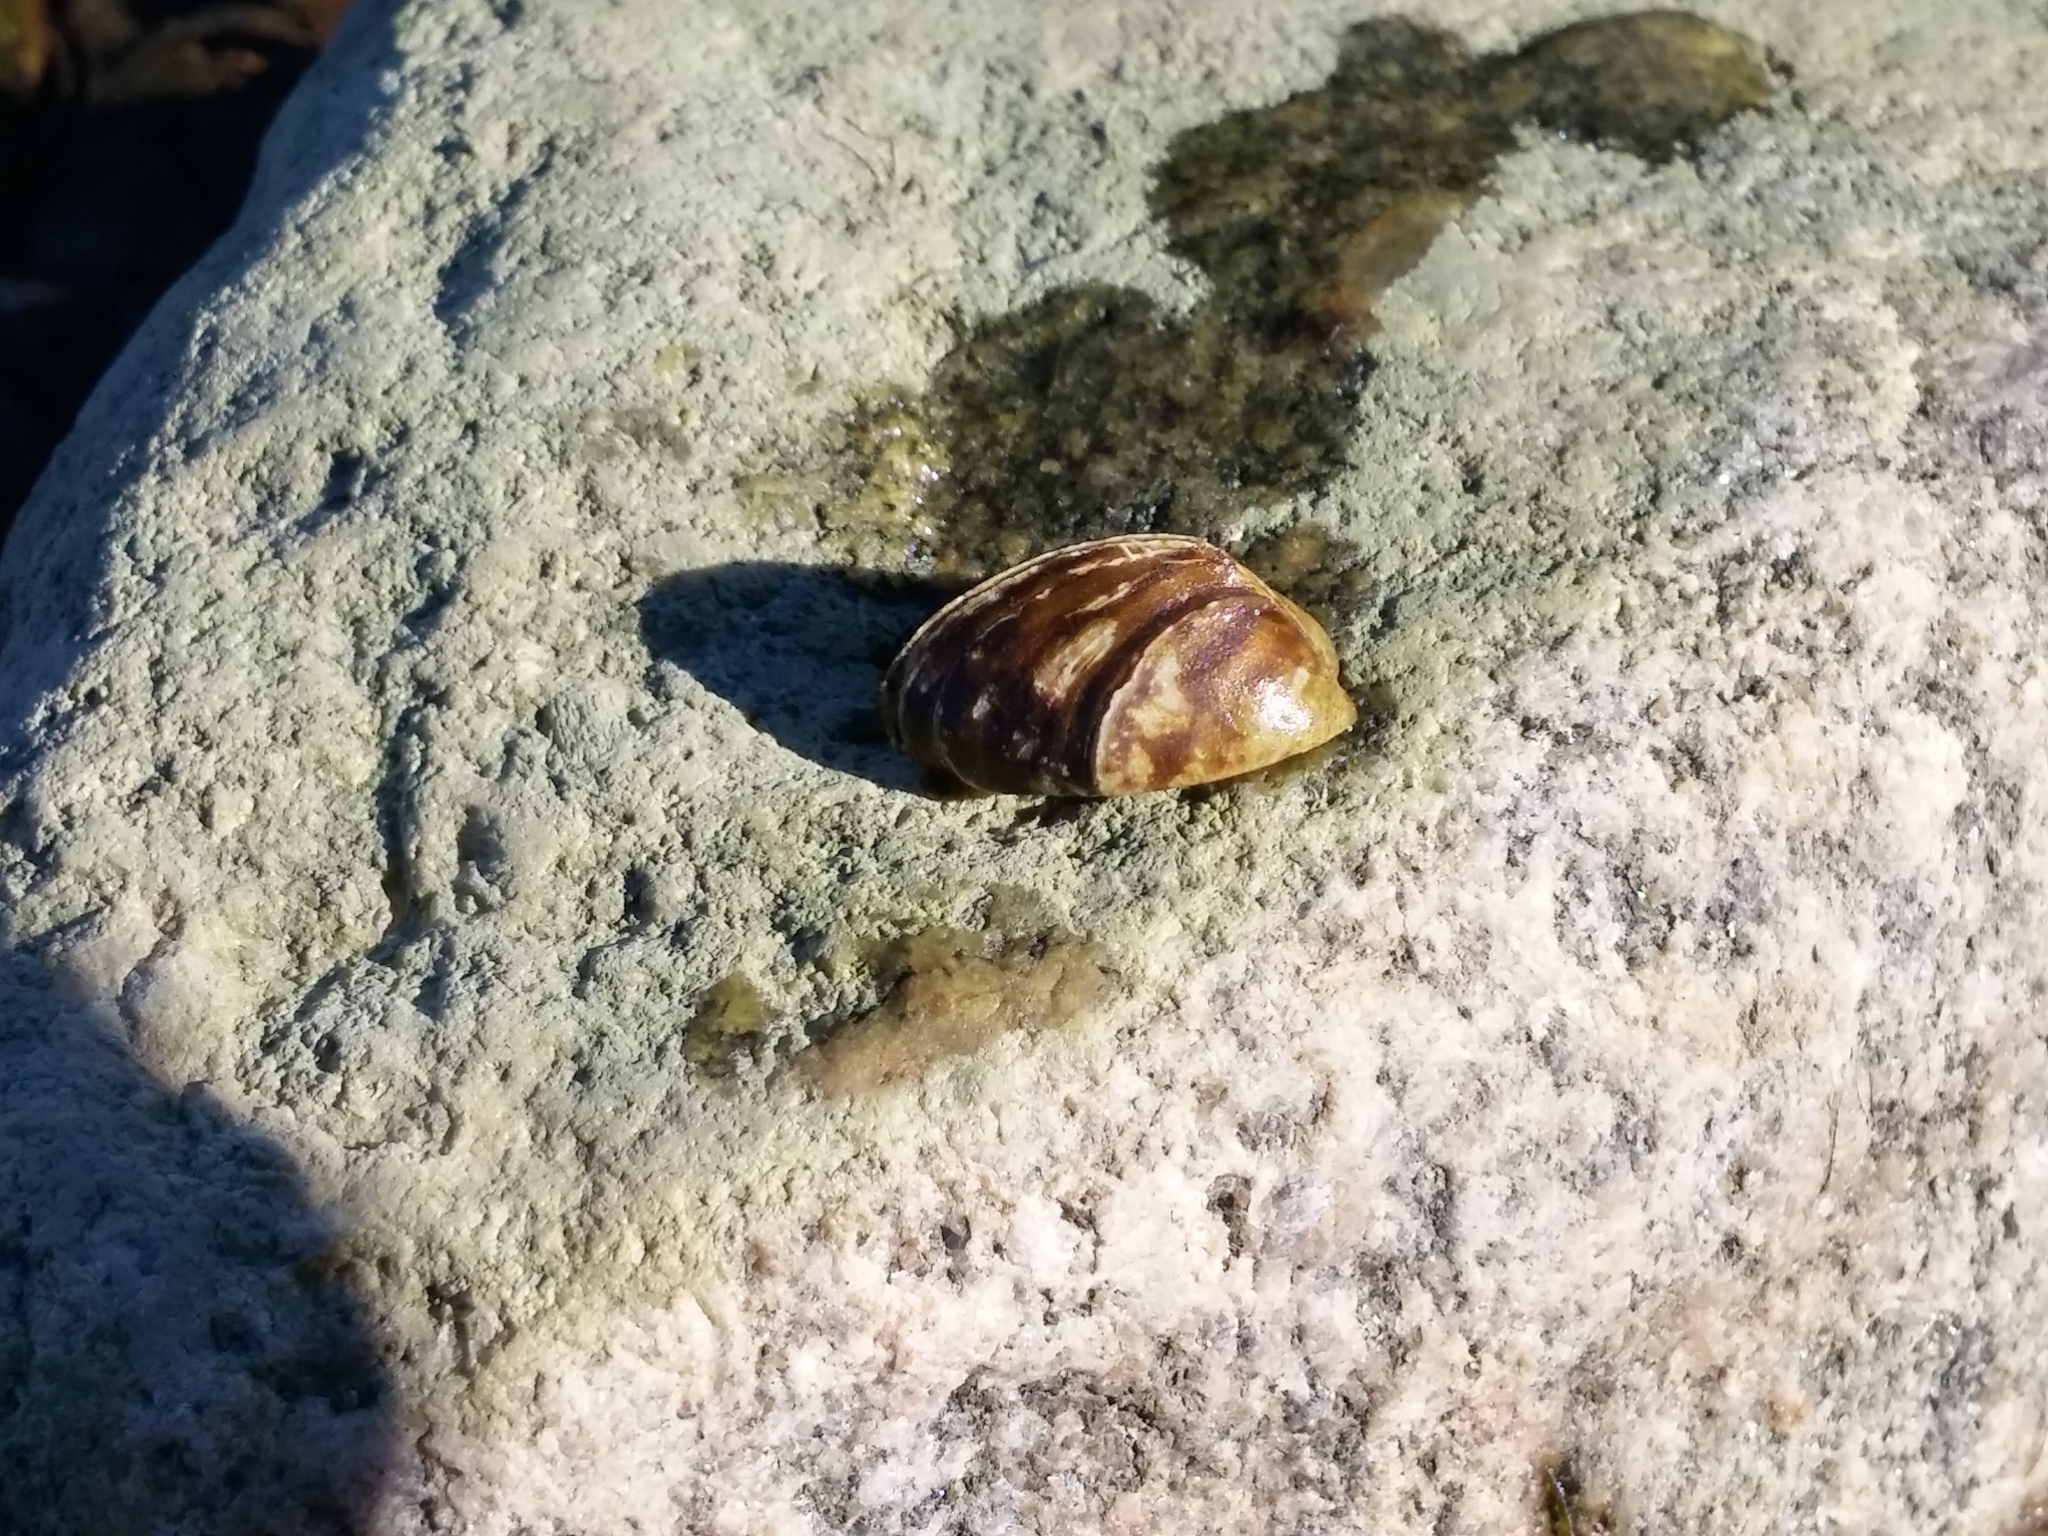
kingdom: Animalia
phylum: Mollusca
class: Bivalvia
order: Myida
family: Dreissenidae
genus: Dreissena
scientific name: Dreissena polymorpha
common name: Zebra mussel
